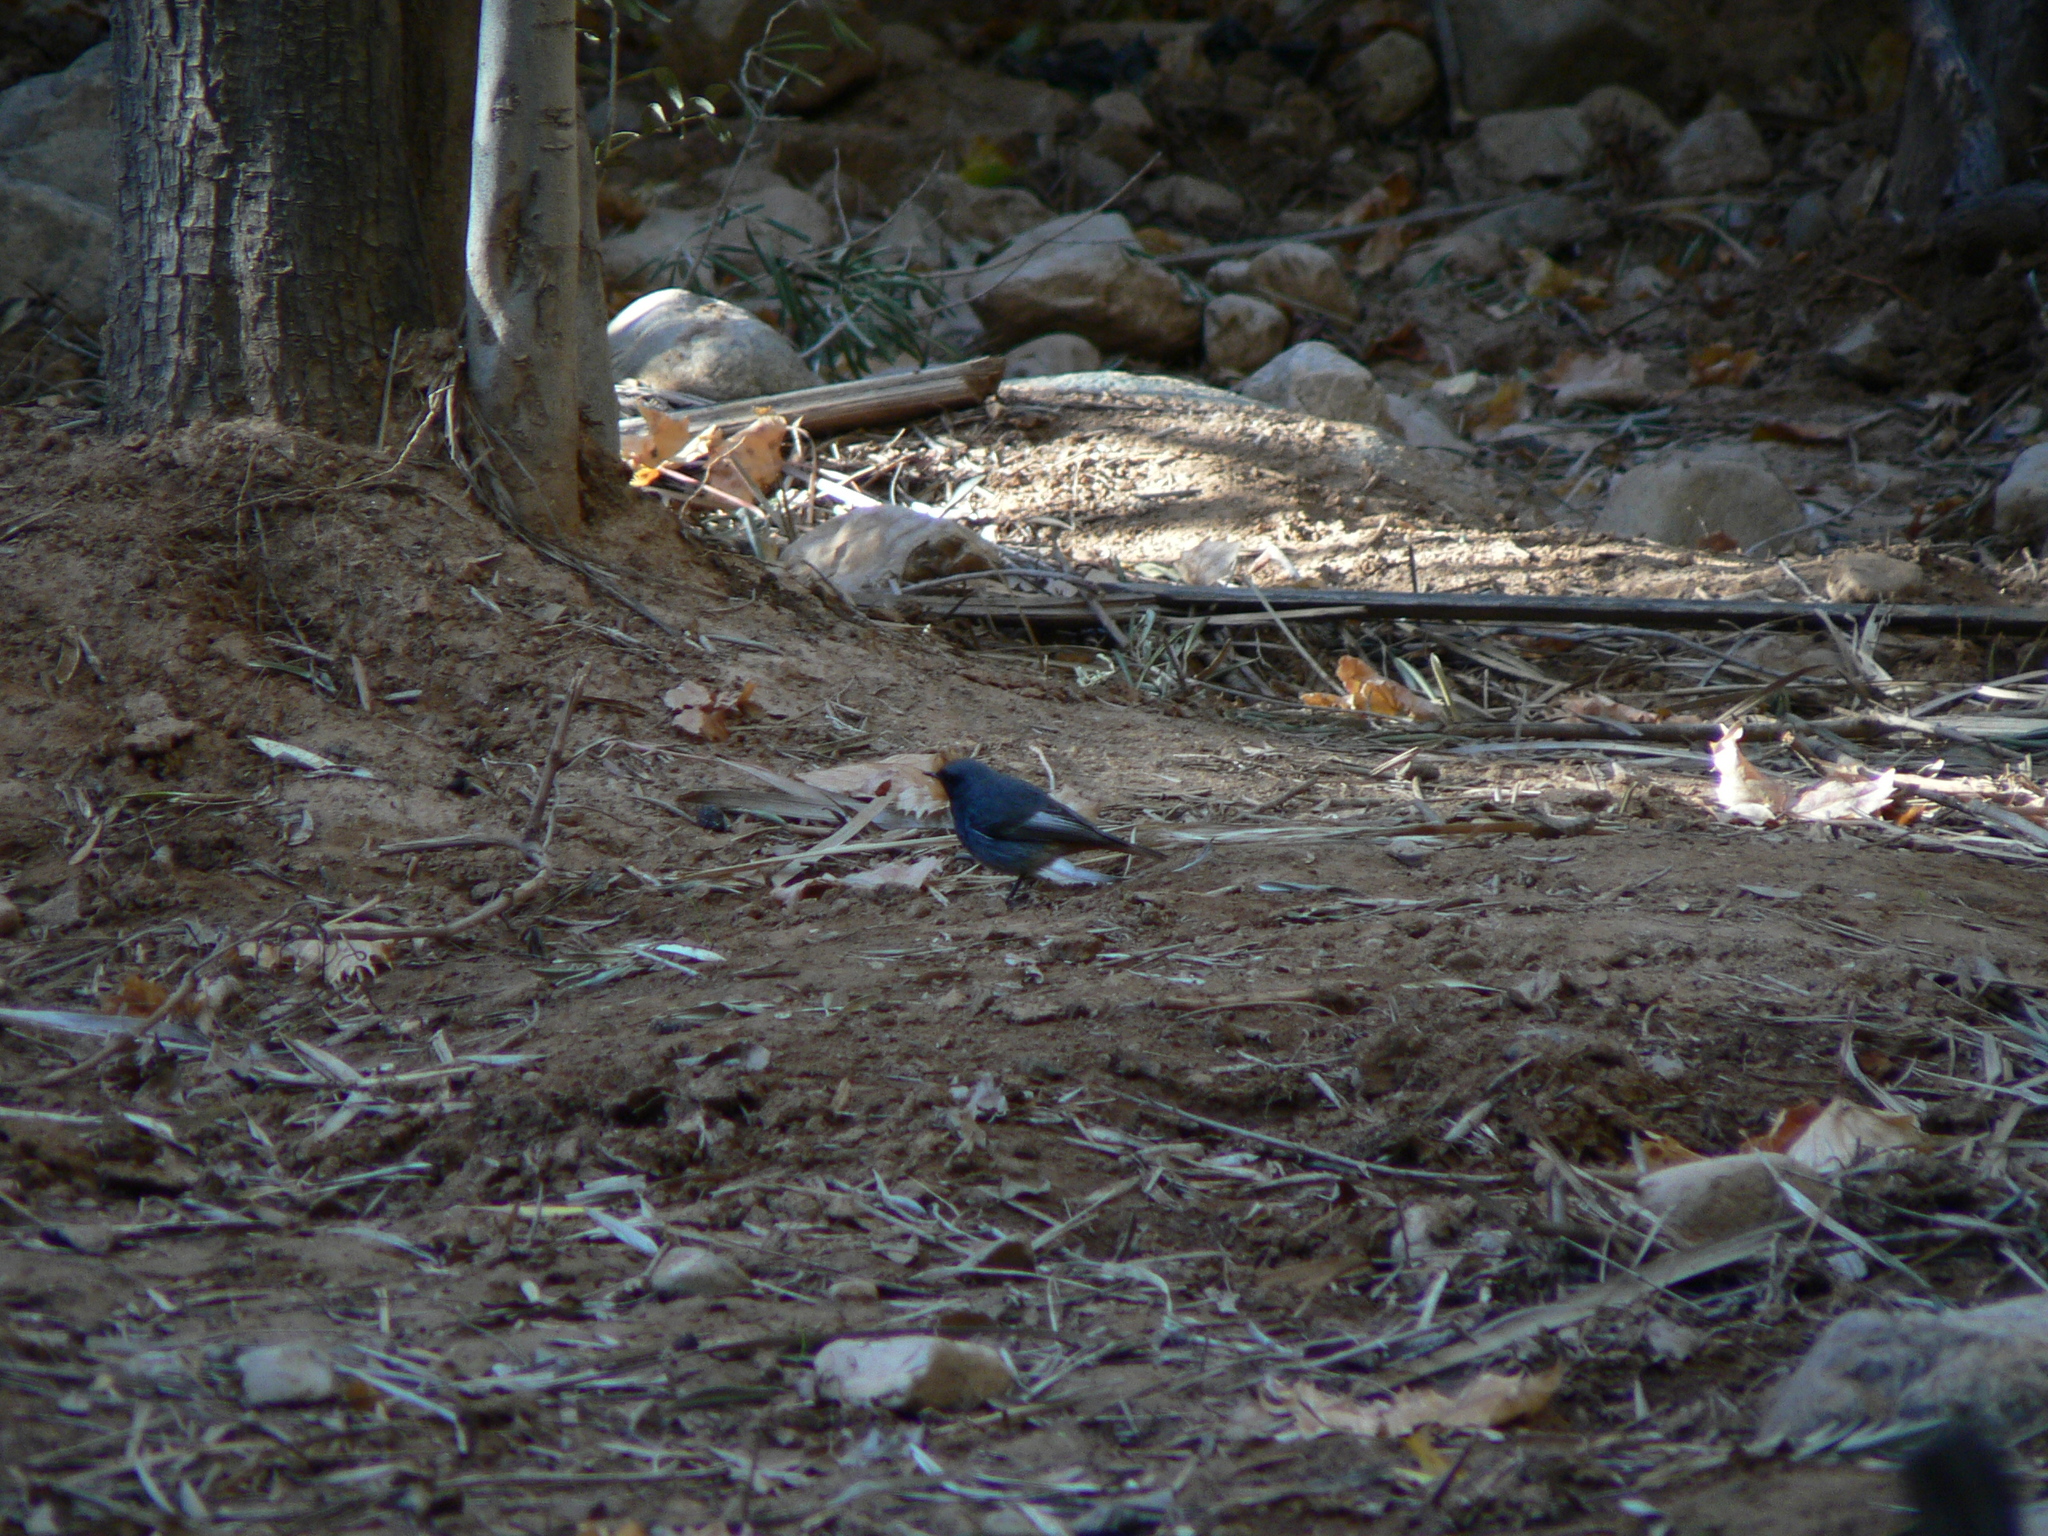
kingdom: Animalia
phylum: Chordata
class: Aves
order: Passeriformes
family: Muscicapidae
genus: Phoenicurus
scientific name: Phoenicurus ochruros
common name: Black redstart
